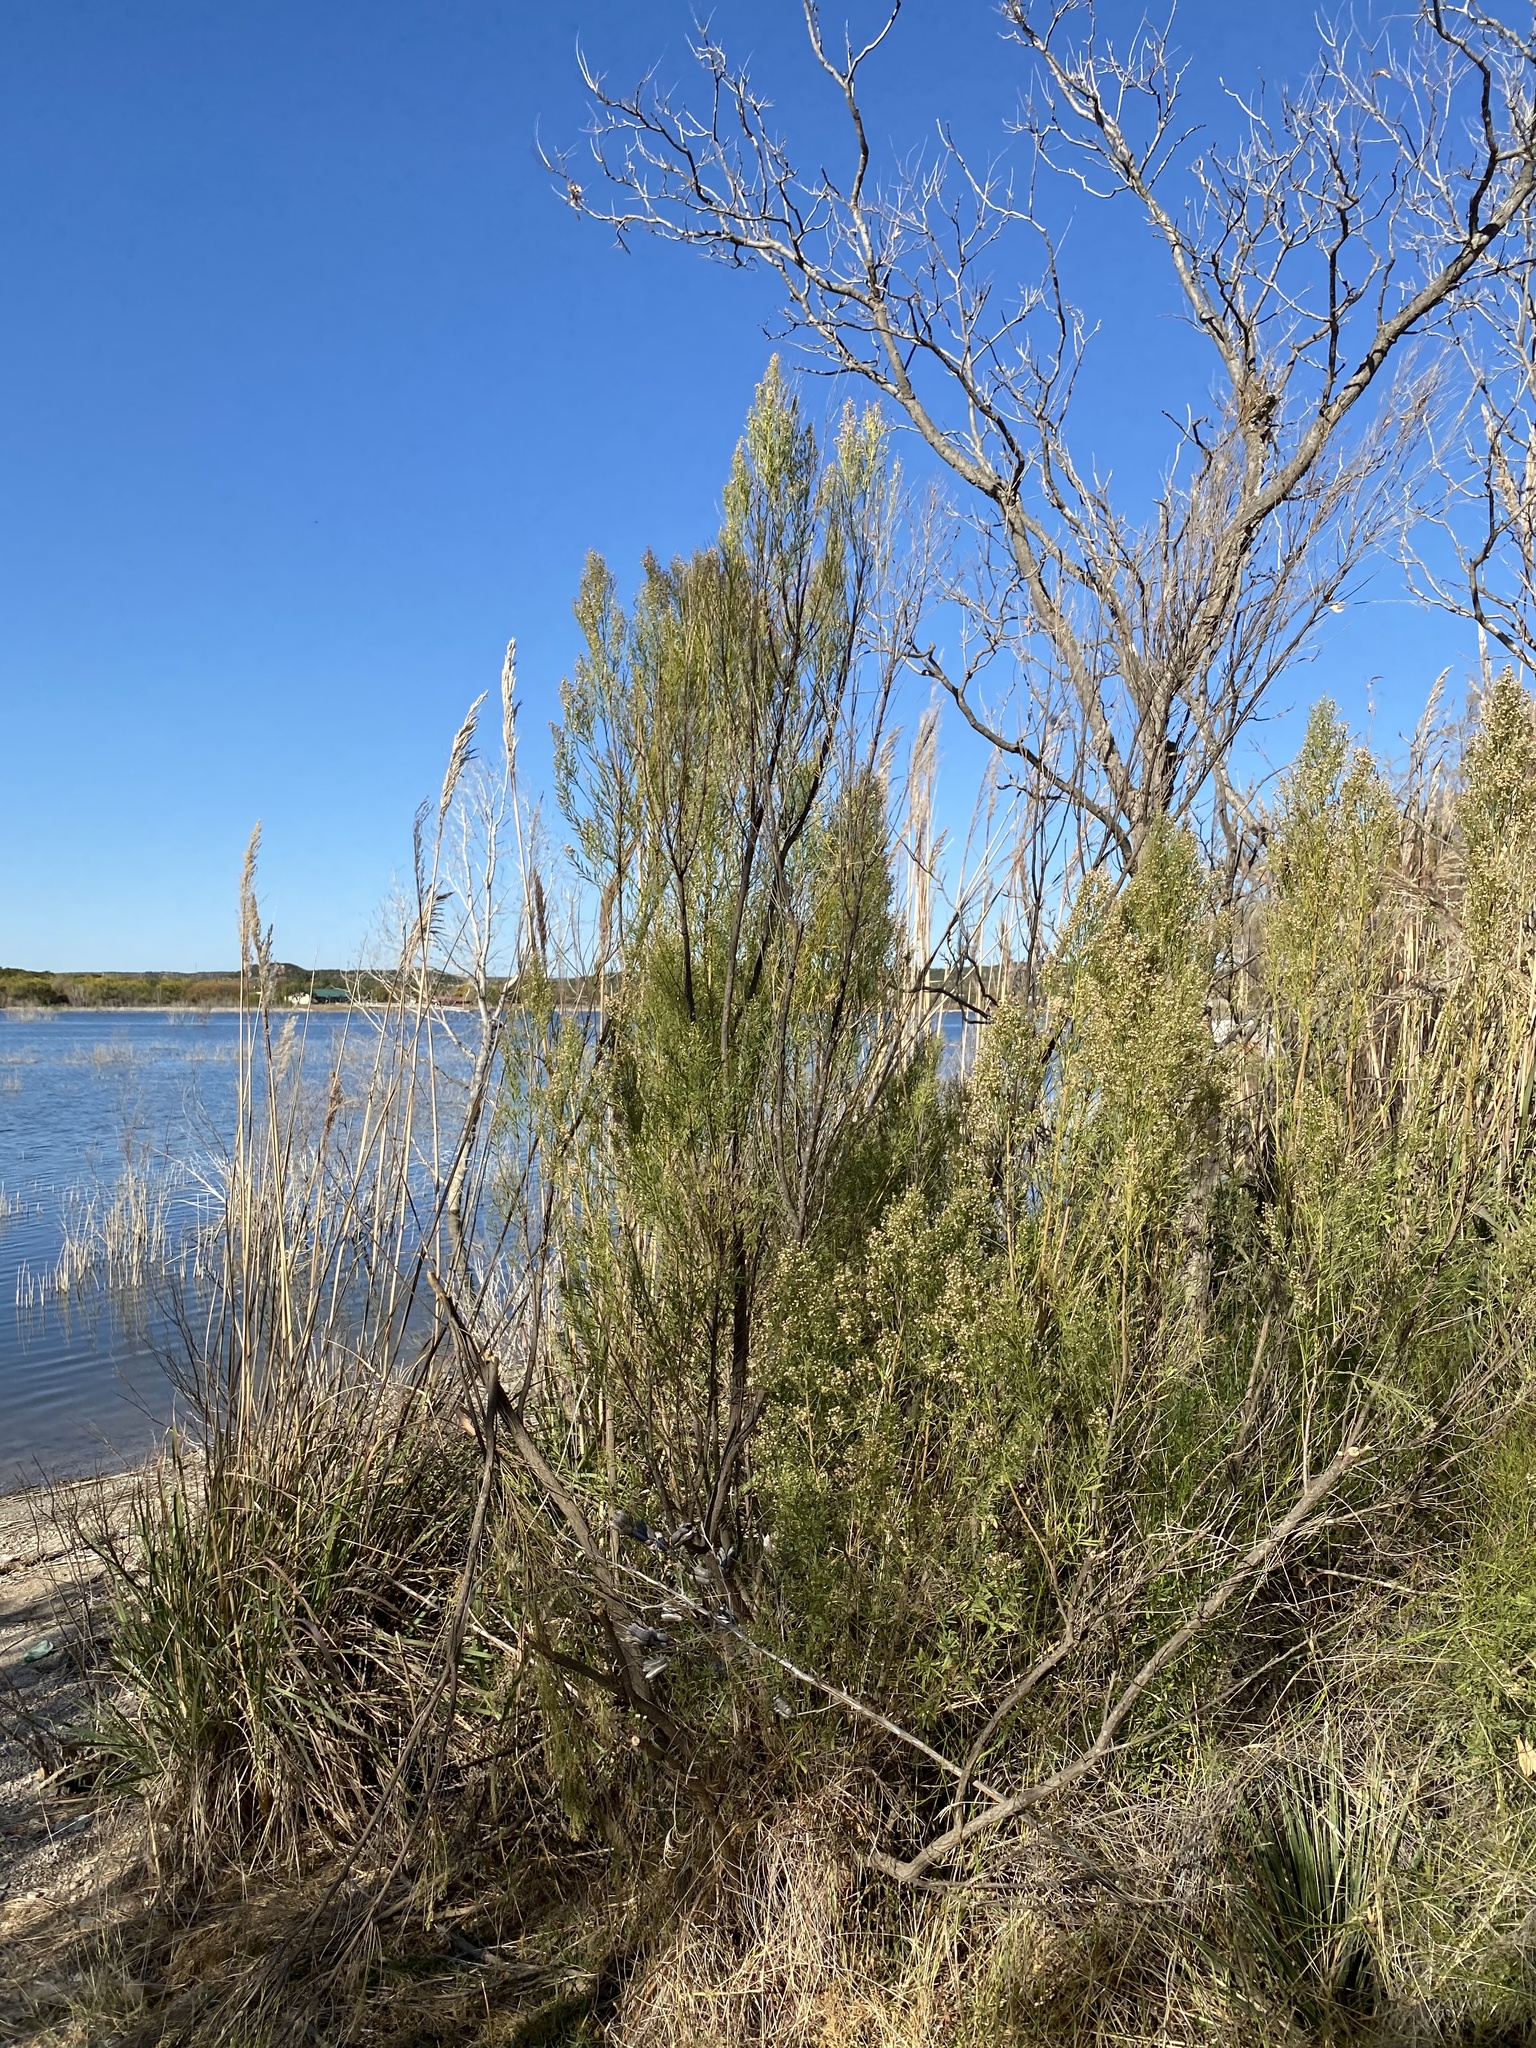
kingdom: Plantae
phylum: Tracheophyta
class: Magnoliopsida
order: Asterales
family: Asteraceae
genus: Baccharis
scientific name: Baccharis neglecta
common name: Roosevelt-weed
